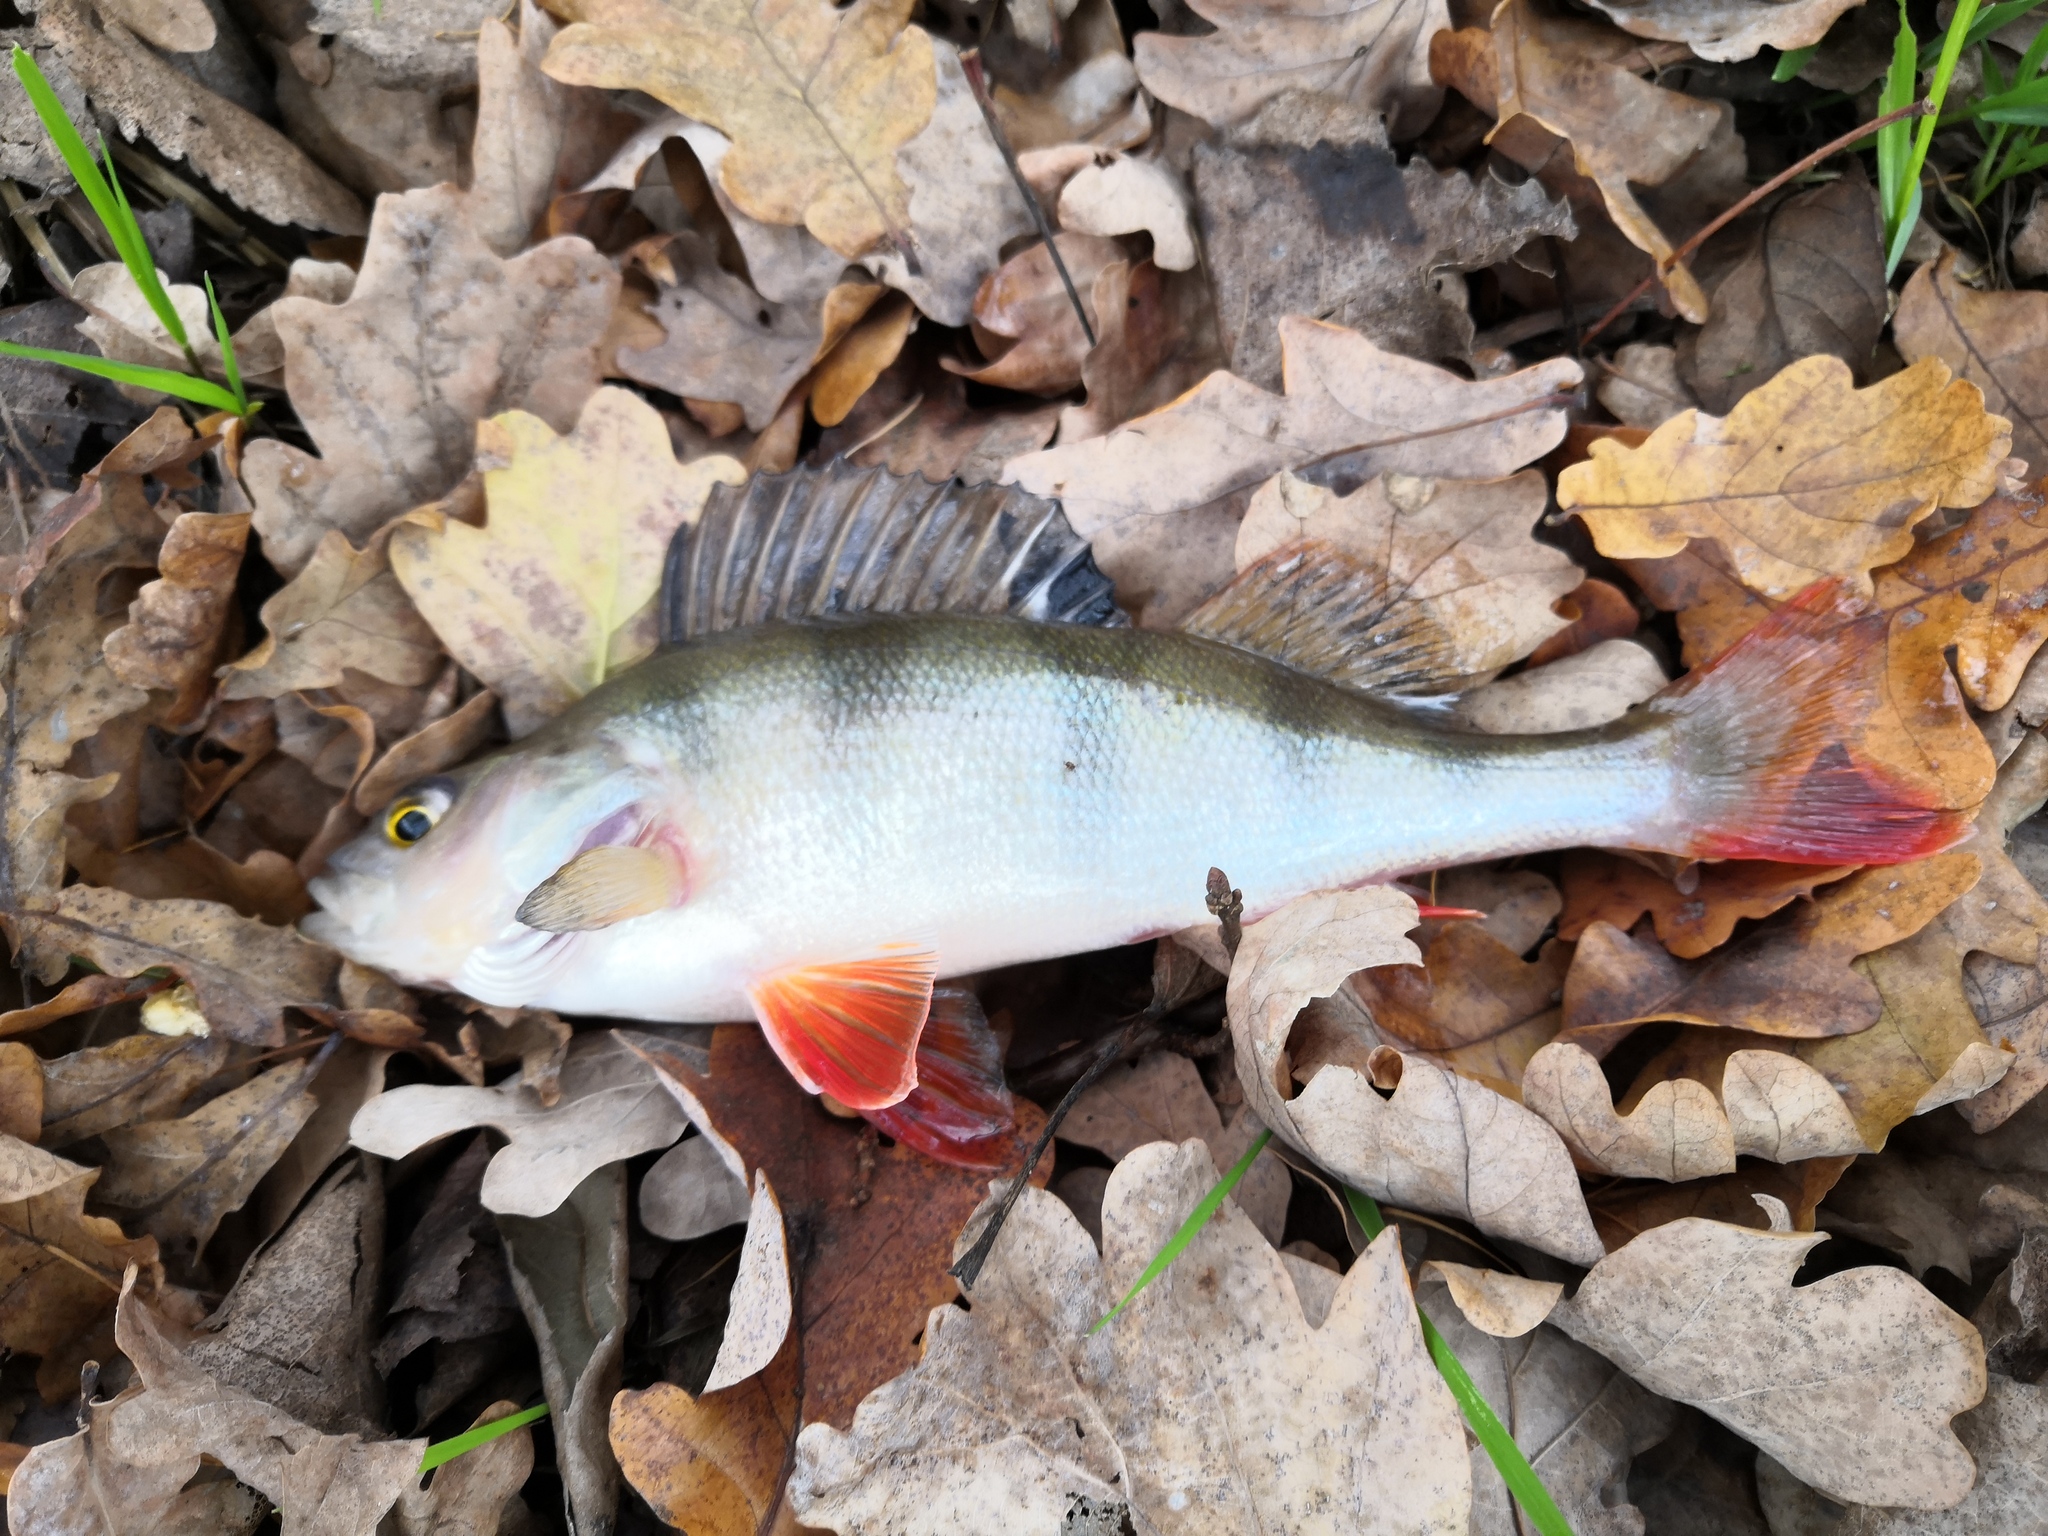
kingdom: Animalia
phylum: Chordata
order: Perciformes
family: Percidae
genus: Perca
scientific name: Perca fluviatilis
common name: Perch
